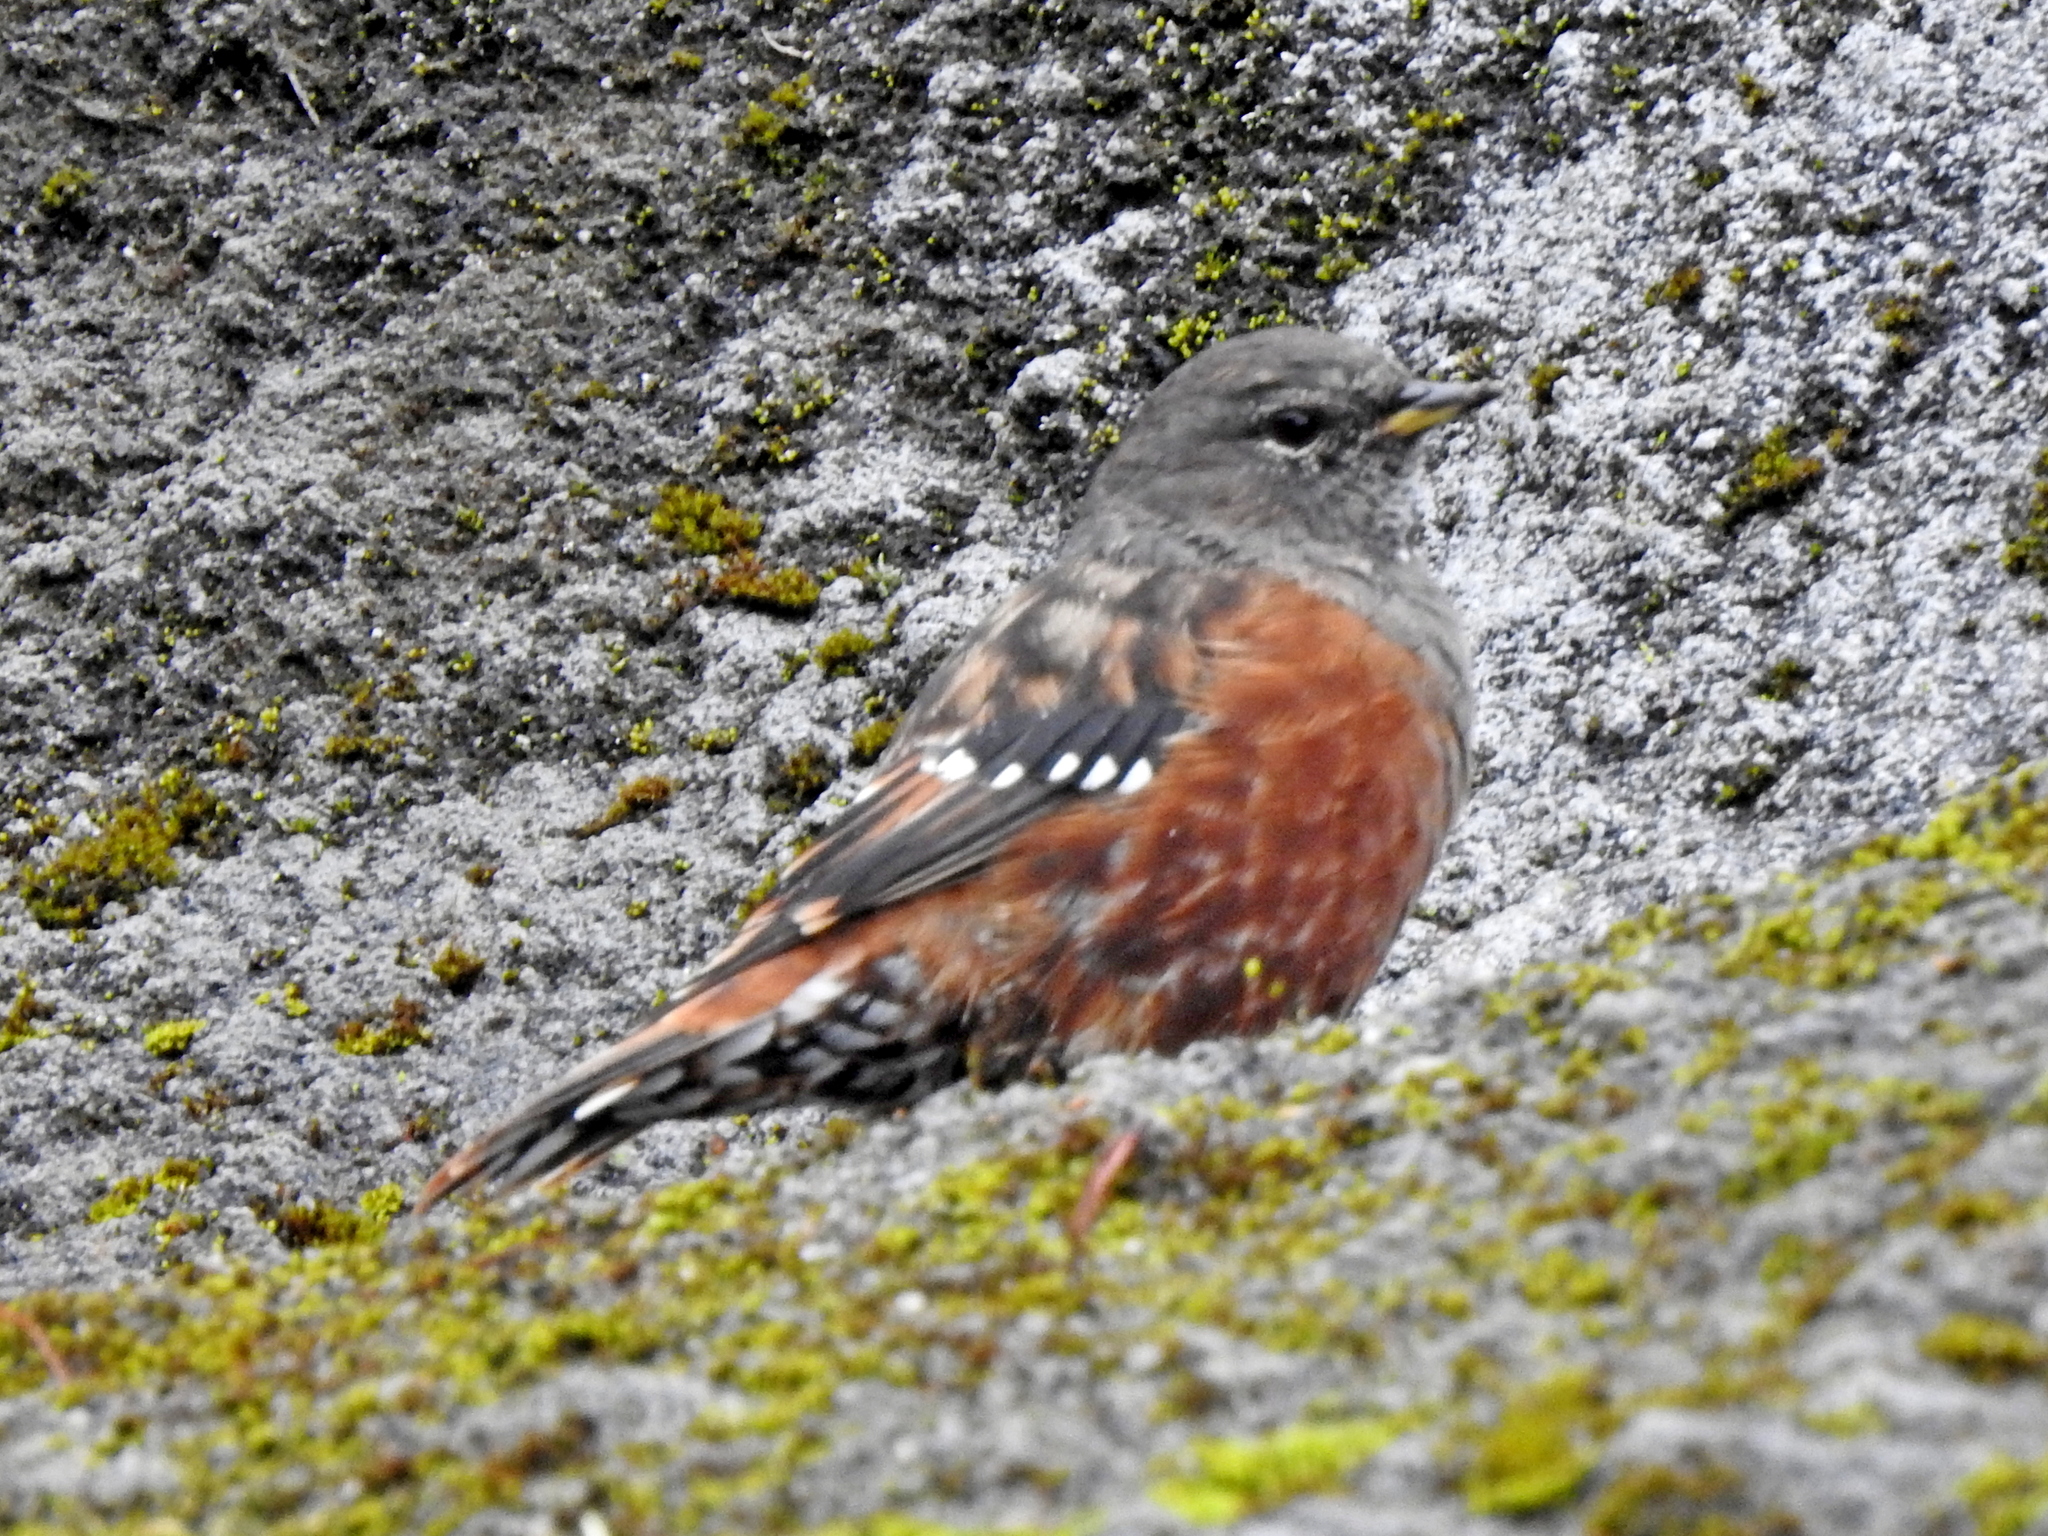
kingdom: Animalia
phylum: Chordata
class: Aves
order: Passeriformes
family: Prunellidae
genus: Prunella
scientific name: Prunella collaris
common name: Alpine accentor
